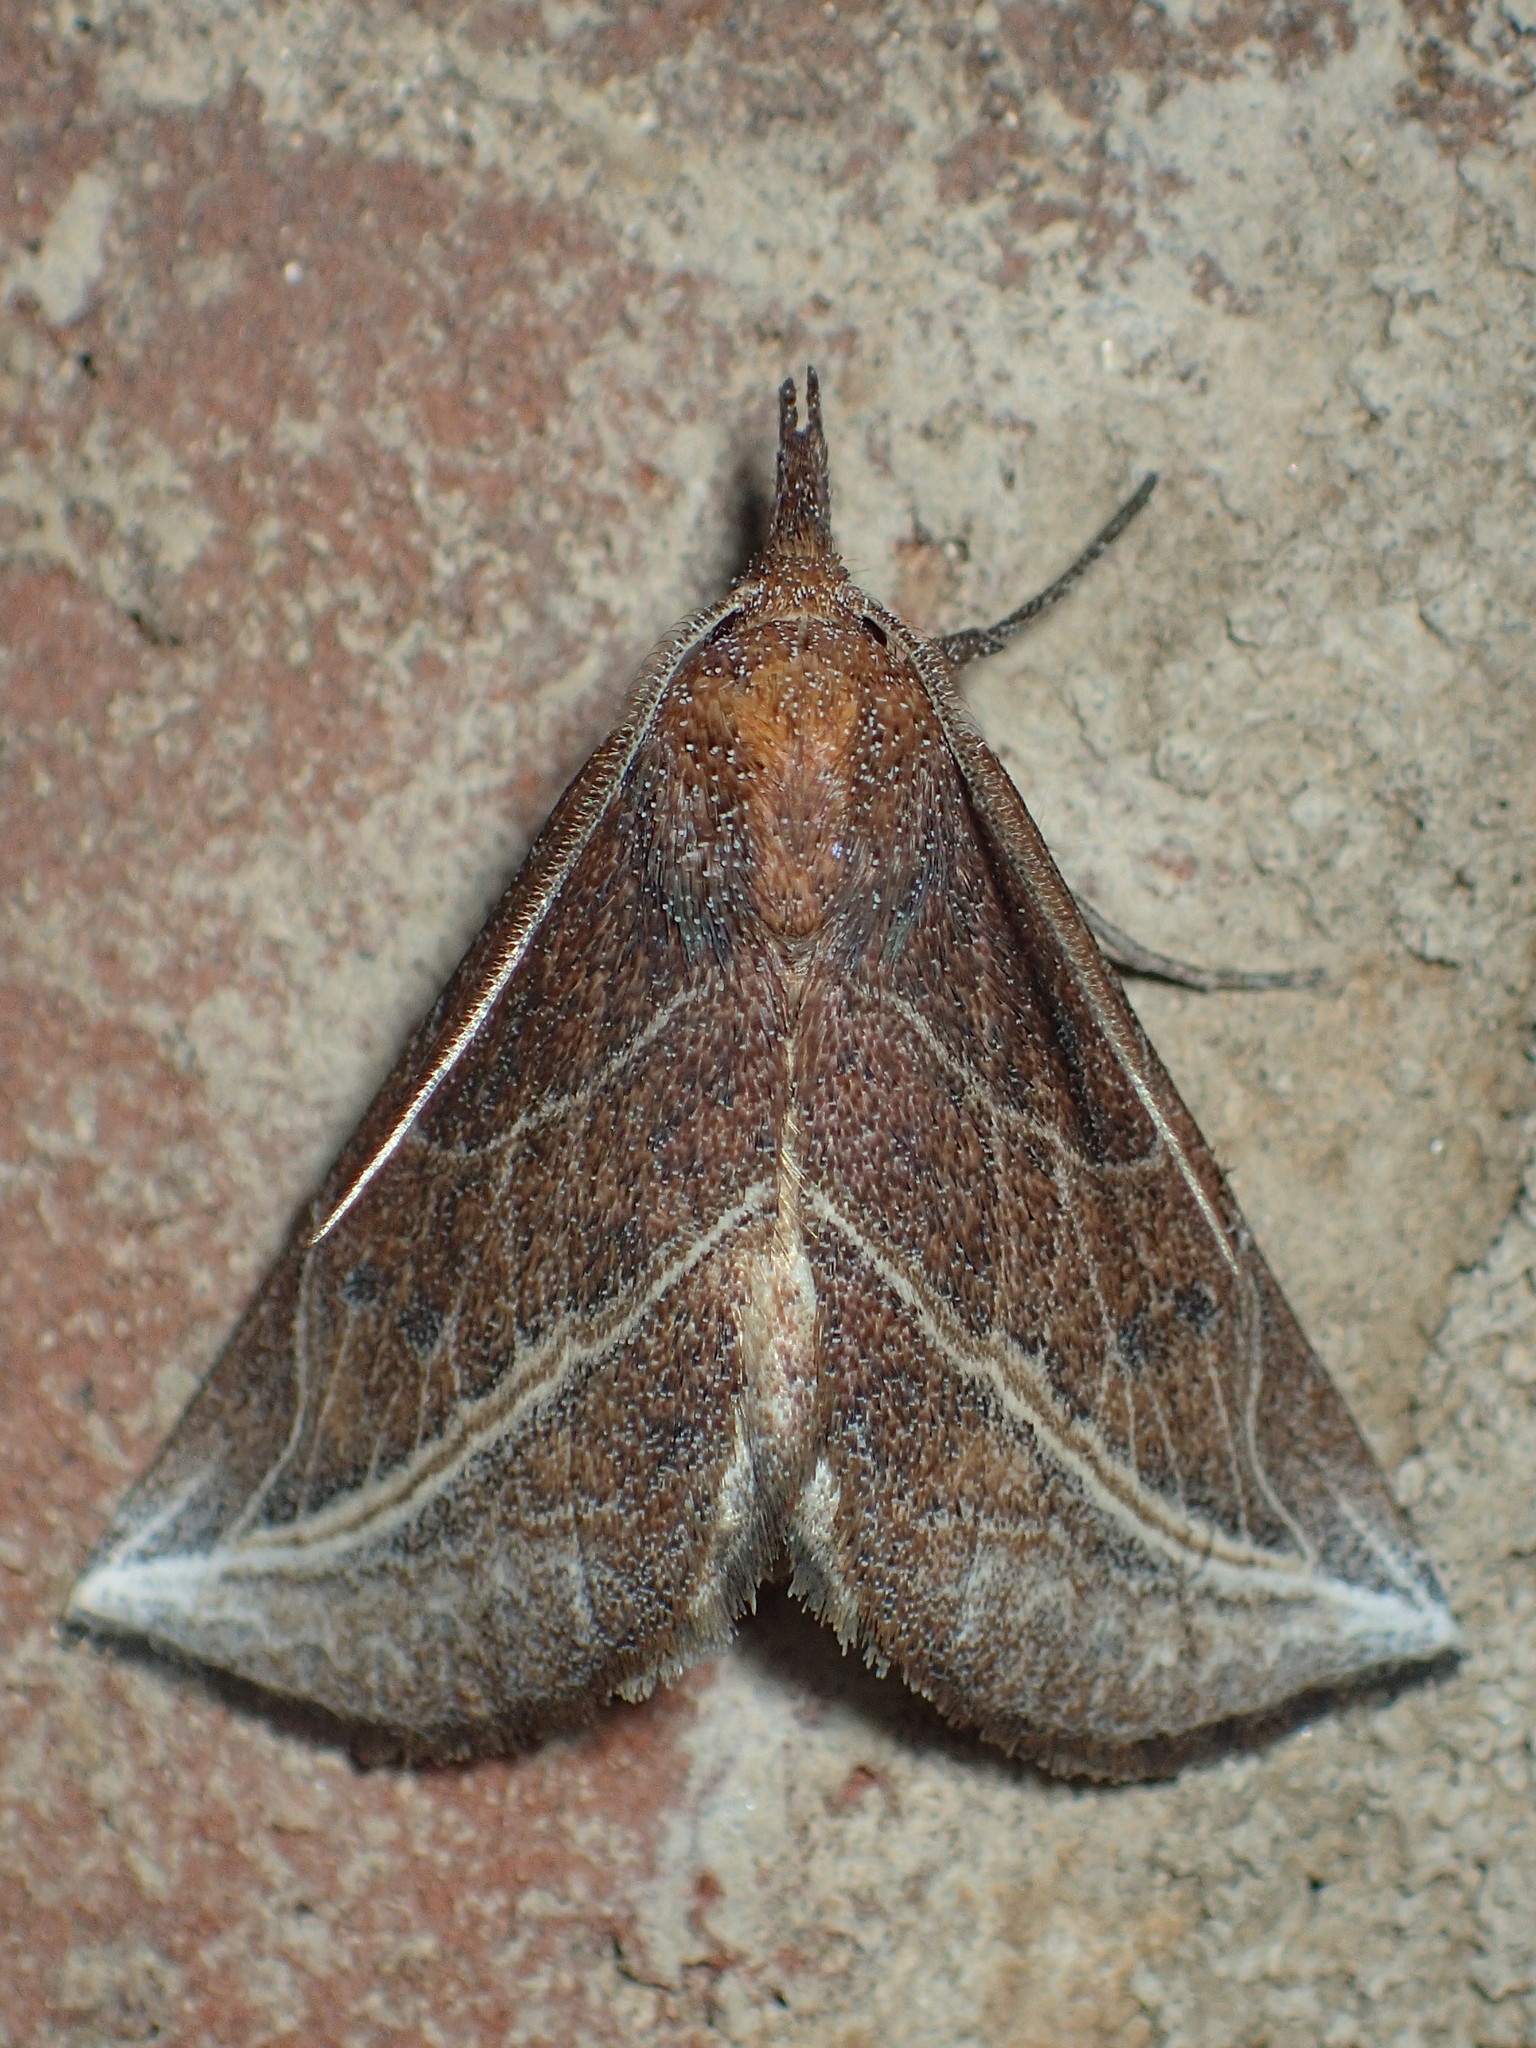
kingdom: Animalia
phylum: Arthropoda
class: Insecta
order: Lepidoptera
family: Erebidae
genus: Phyprosopus
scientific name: Phyprosopus callitrichoides
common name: Curved-lined owlet
